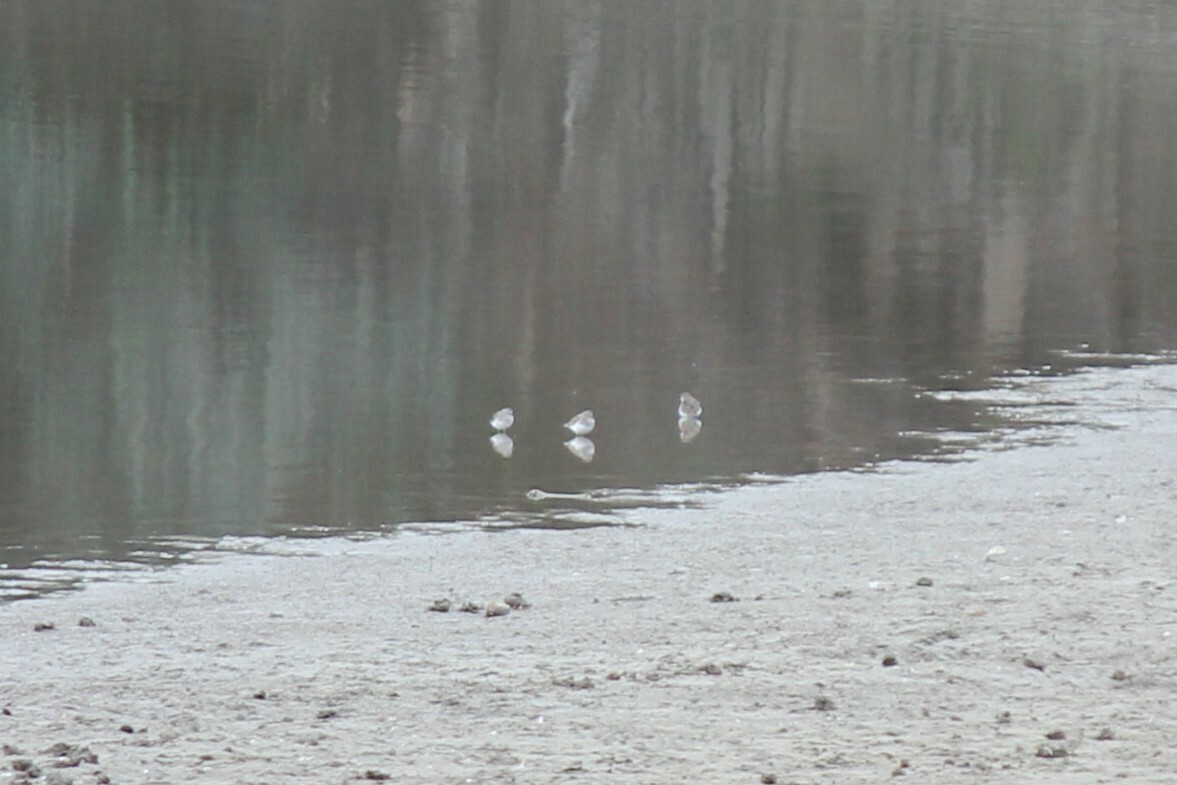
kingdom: Animalia
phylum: Chordata
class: Aves
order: Charadriiformes
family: Scolopacidae
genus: Calidris
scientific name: Calidris minutilla
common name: Least sandpiper
